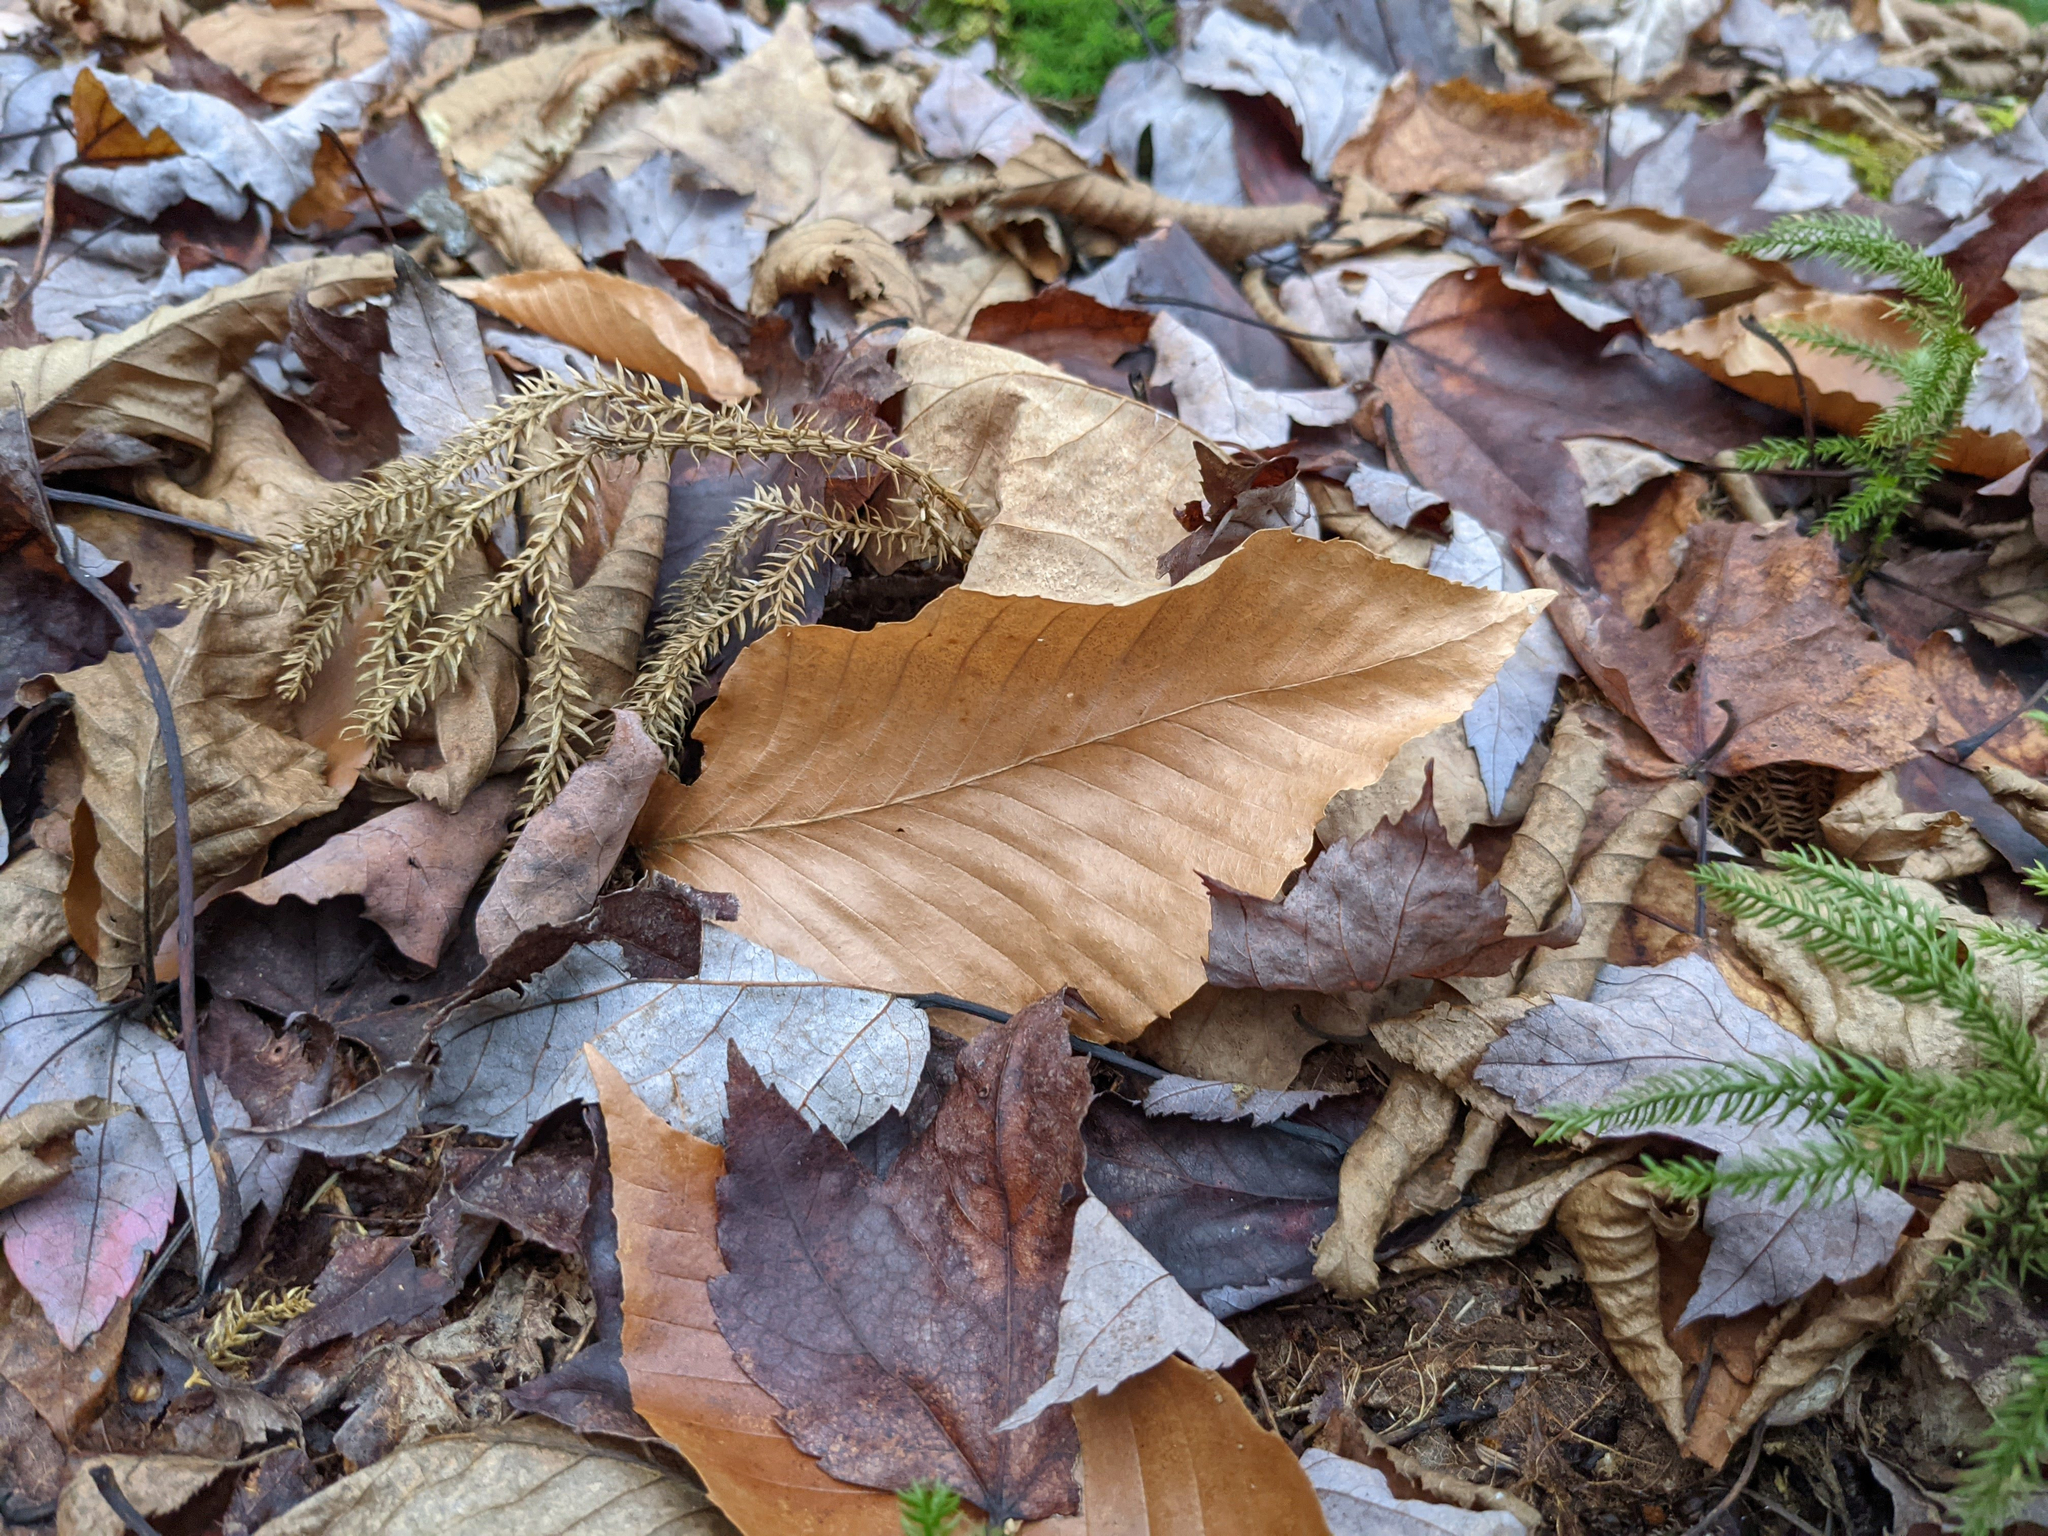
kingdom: Plantae
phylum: Tracheophyta
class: Magnoliopsida
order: Fagales
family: Fagaceae
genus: Fagus
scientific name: Fagus grandifolia
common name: American beech
